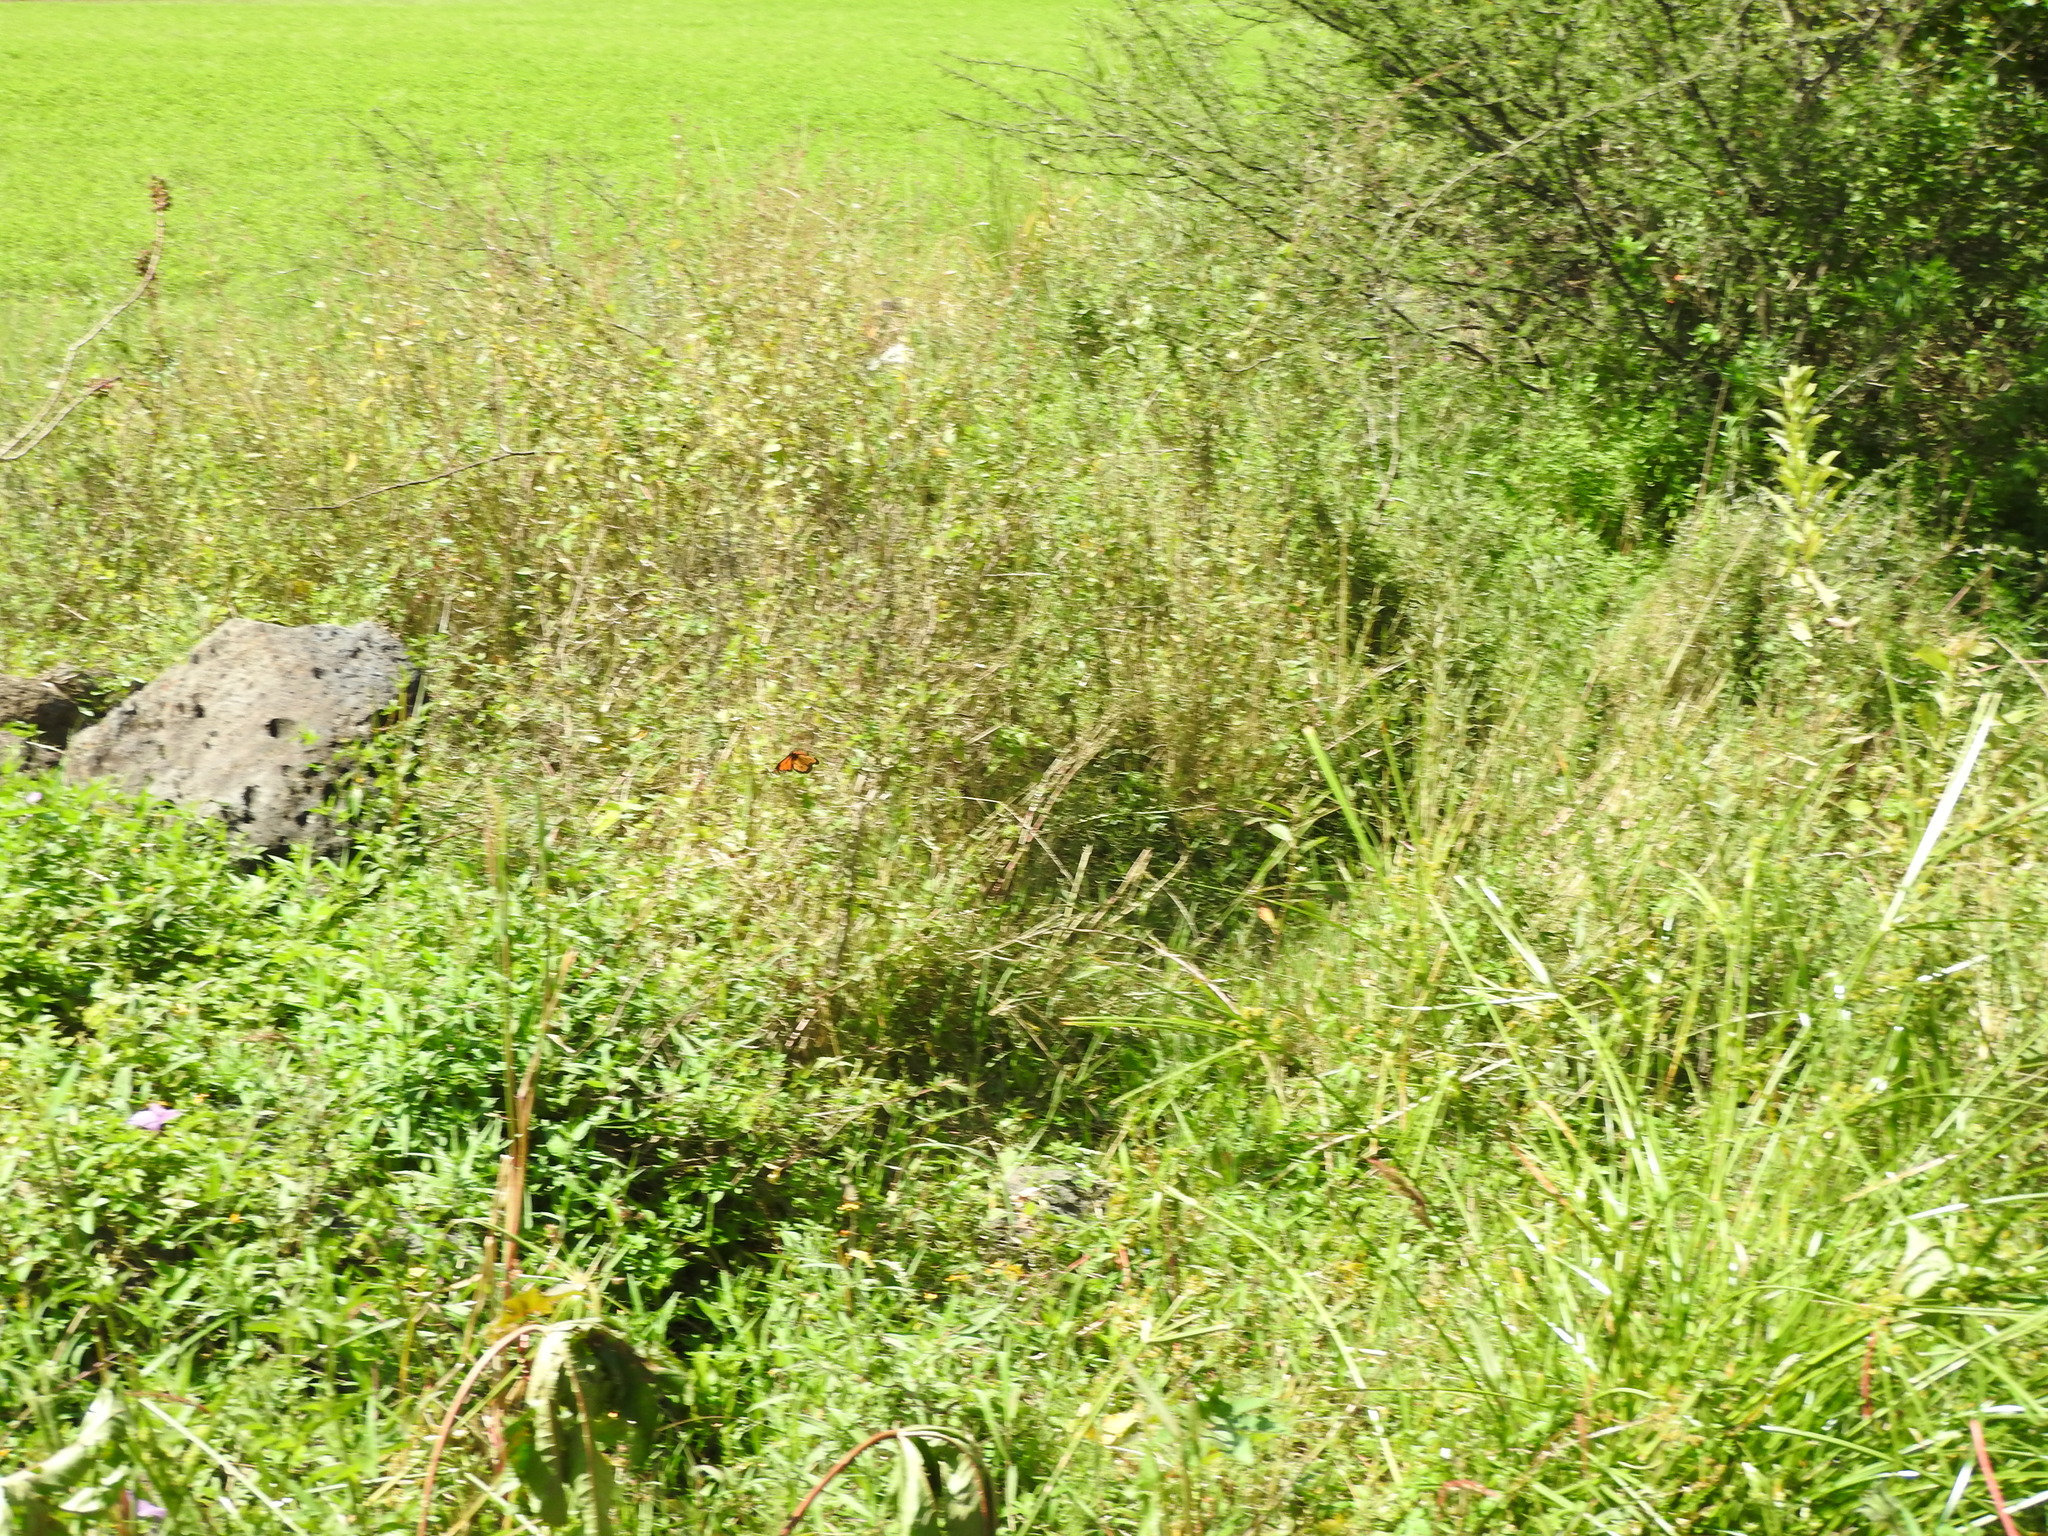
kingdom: Animalia
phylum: Arthropoda
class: Insecta
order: Lepidoptera
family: Nymphalidae
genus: Danaus
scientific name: Danaus plexippus
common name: Monarch
